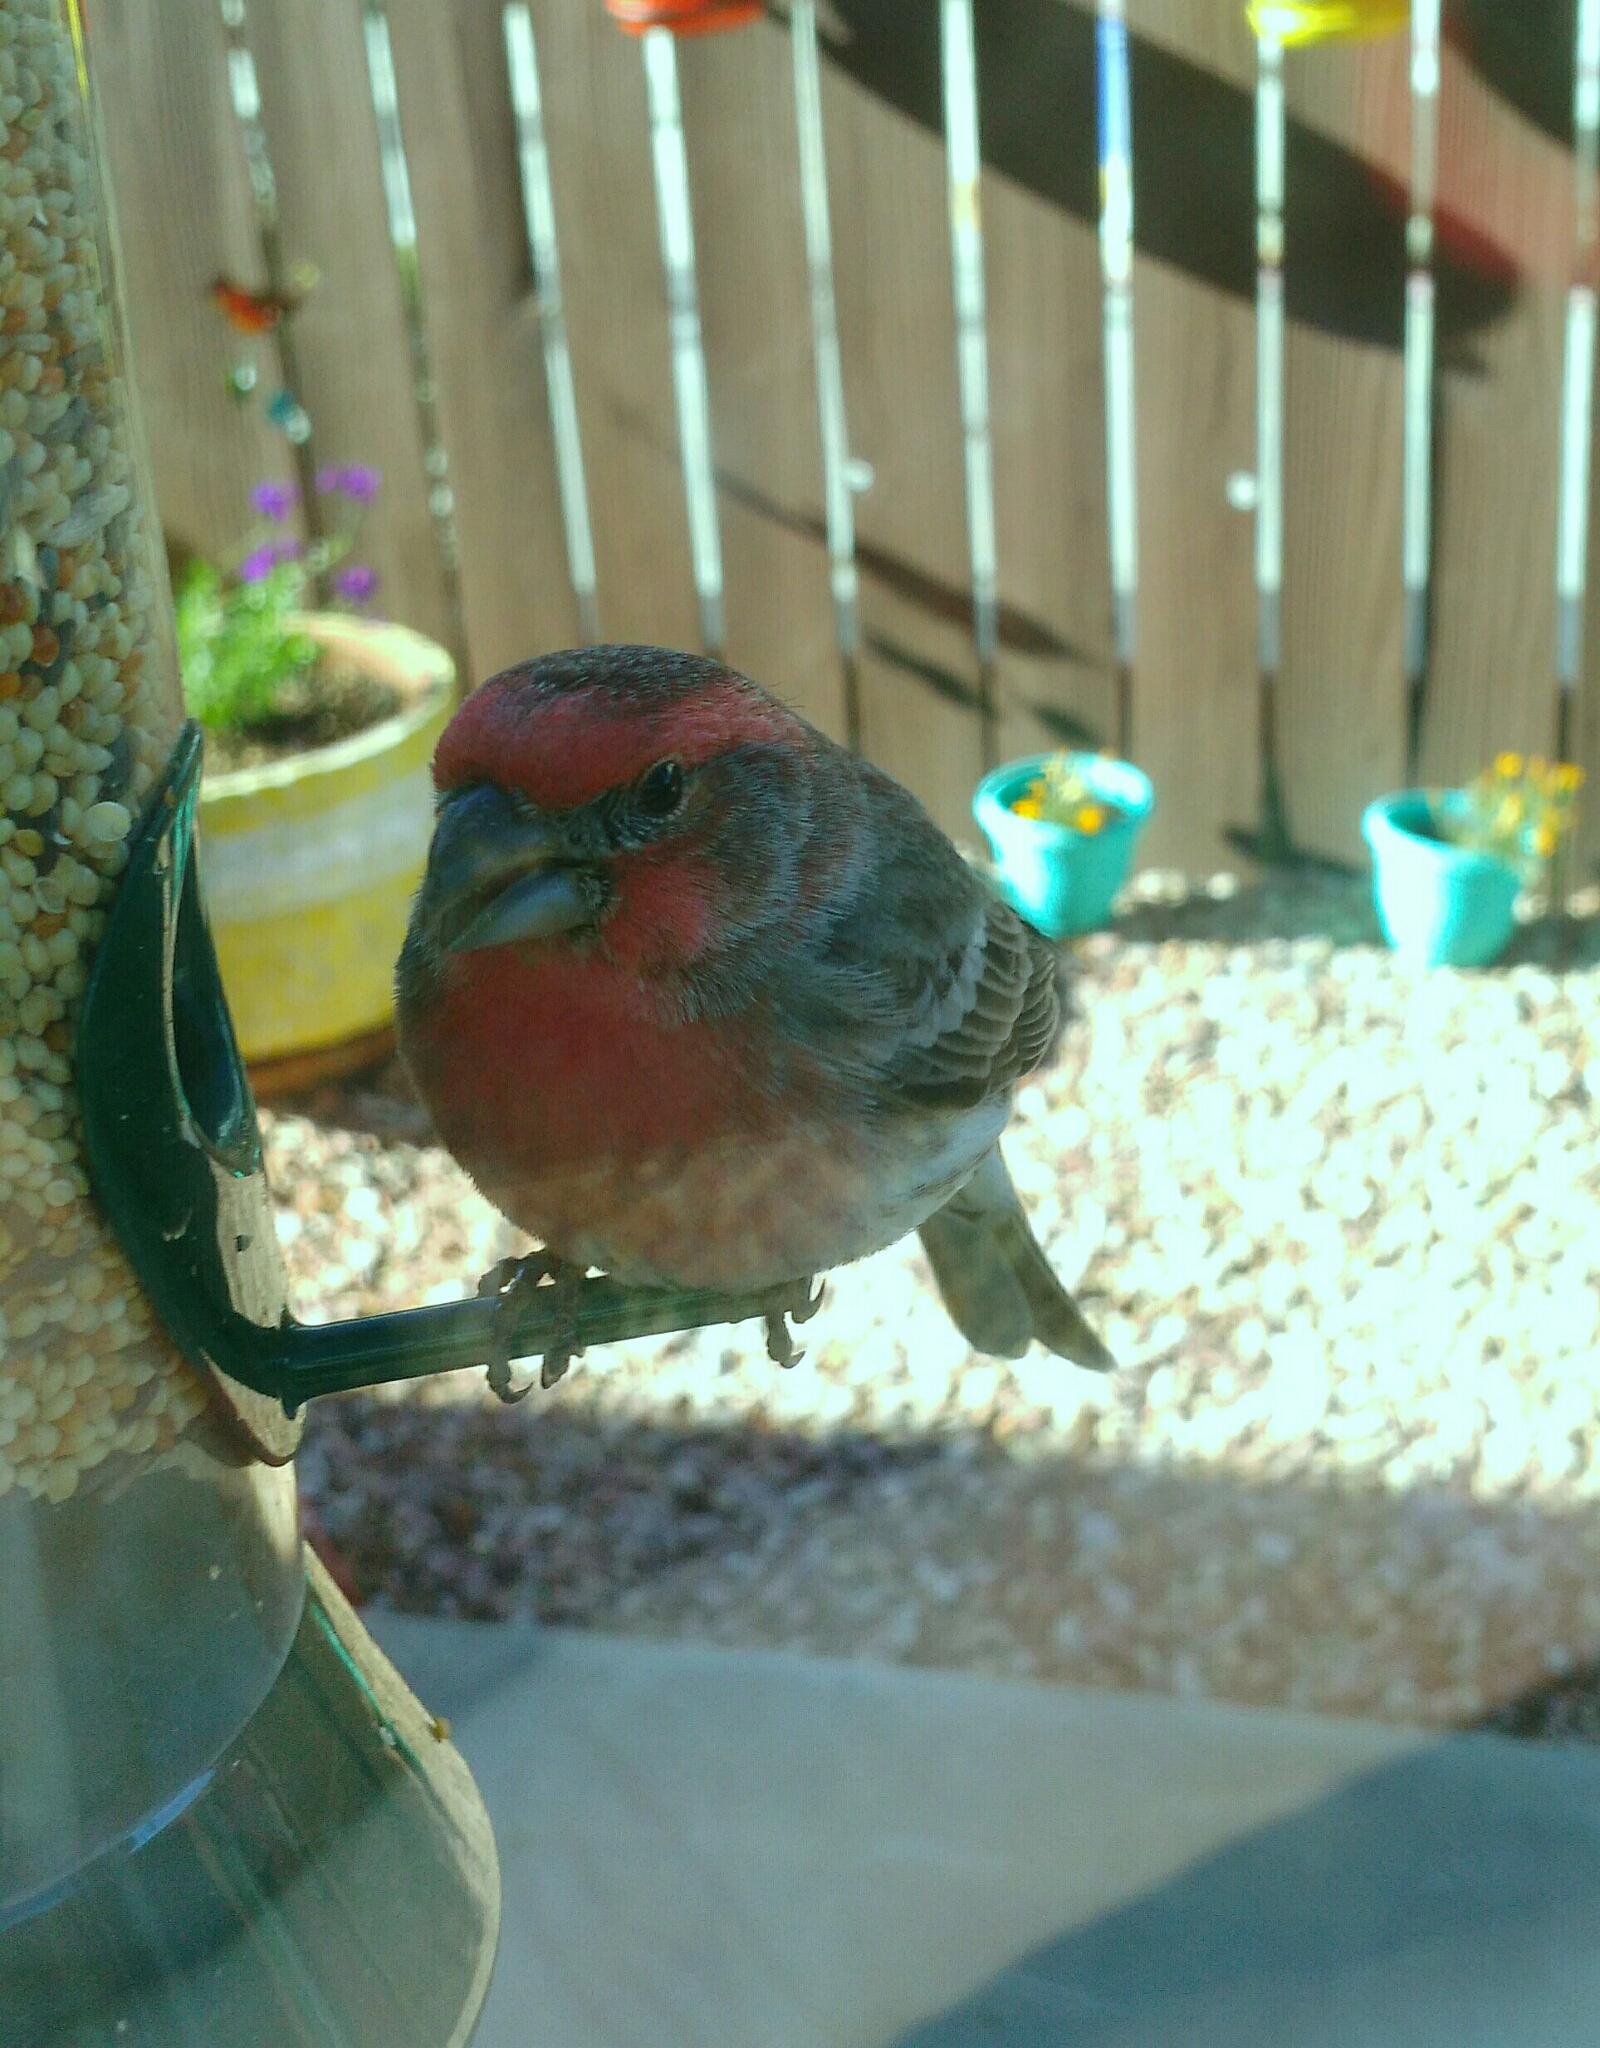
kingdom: Animalia
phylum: Chordata
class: Aves
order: Passeriformes
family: Fringillidae
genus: Haemorhous
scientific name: Haemorhous mexicanus
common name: House finch
